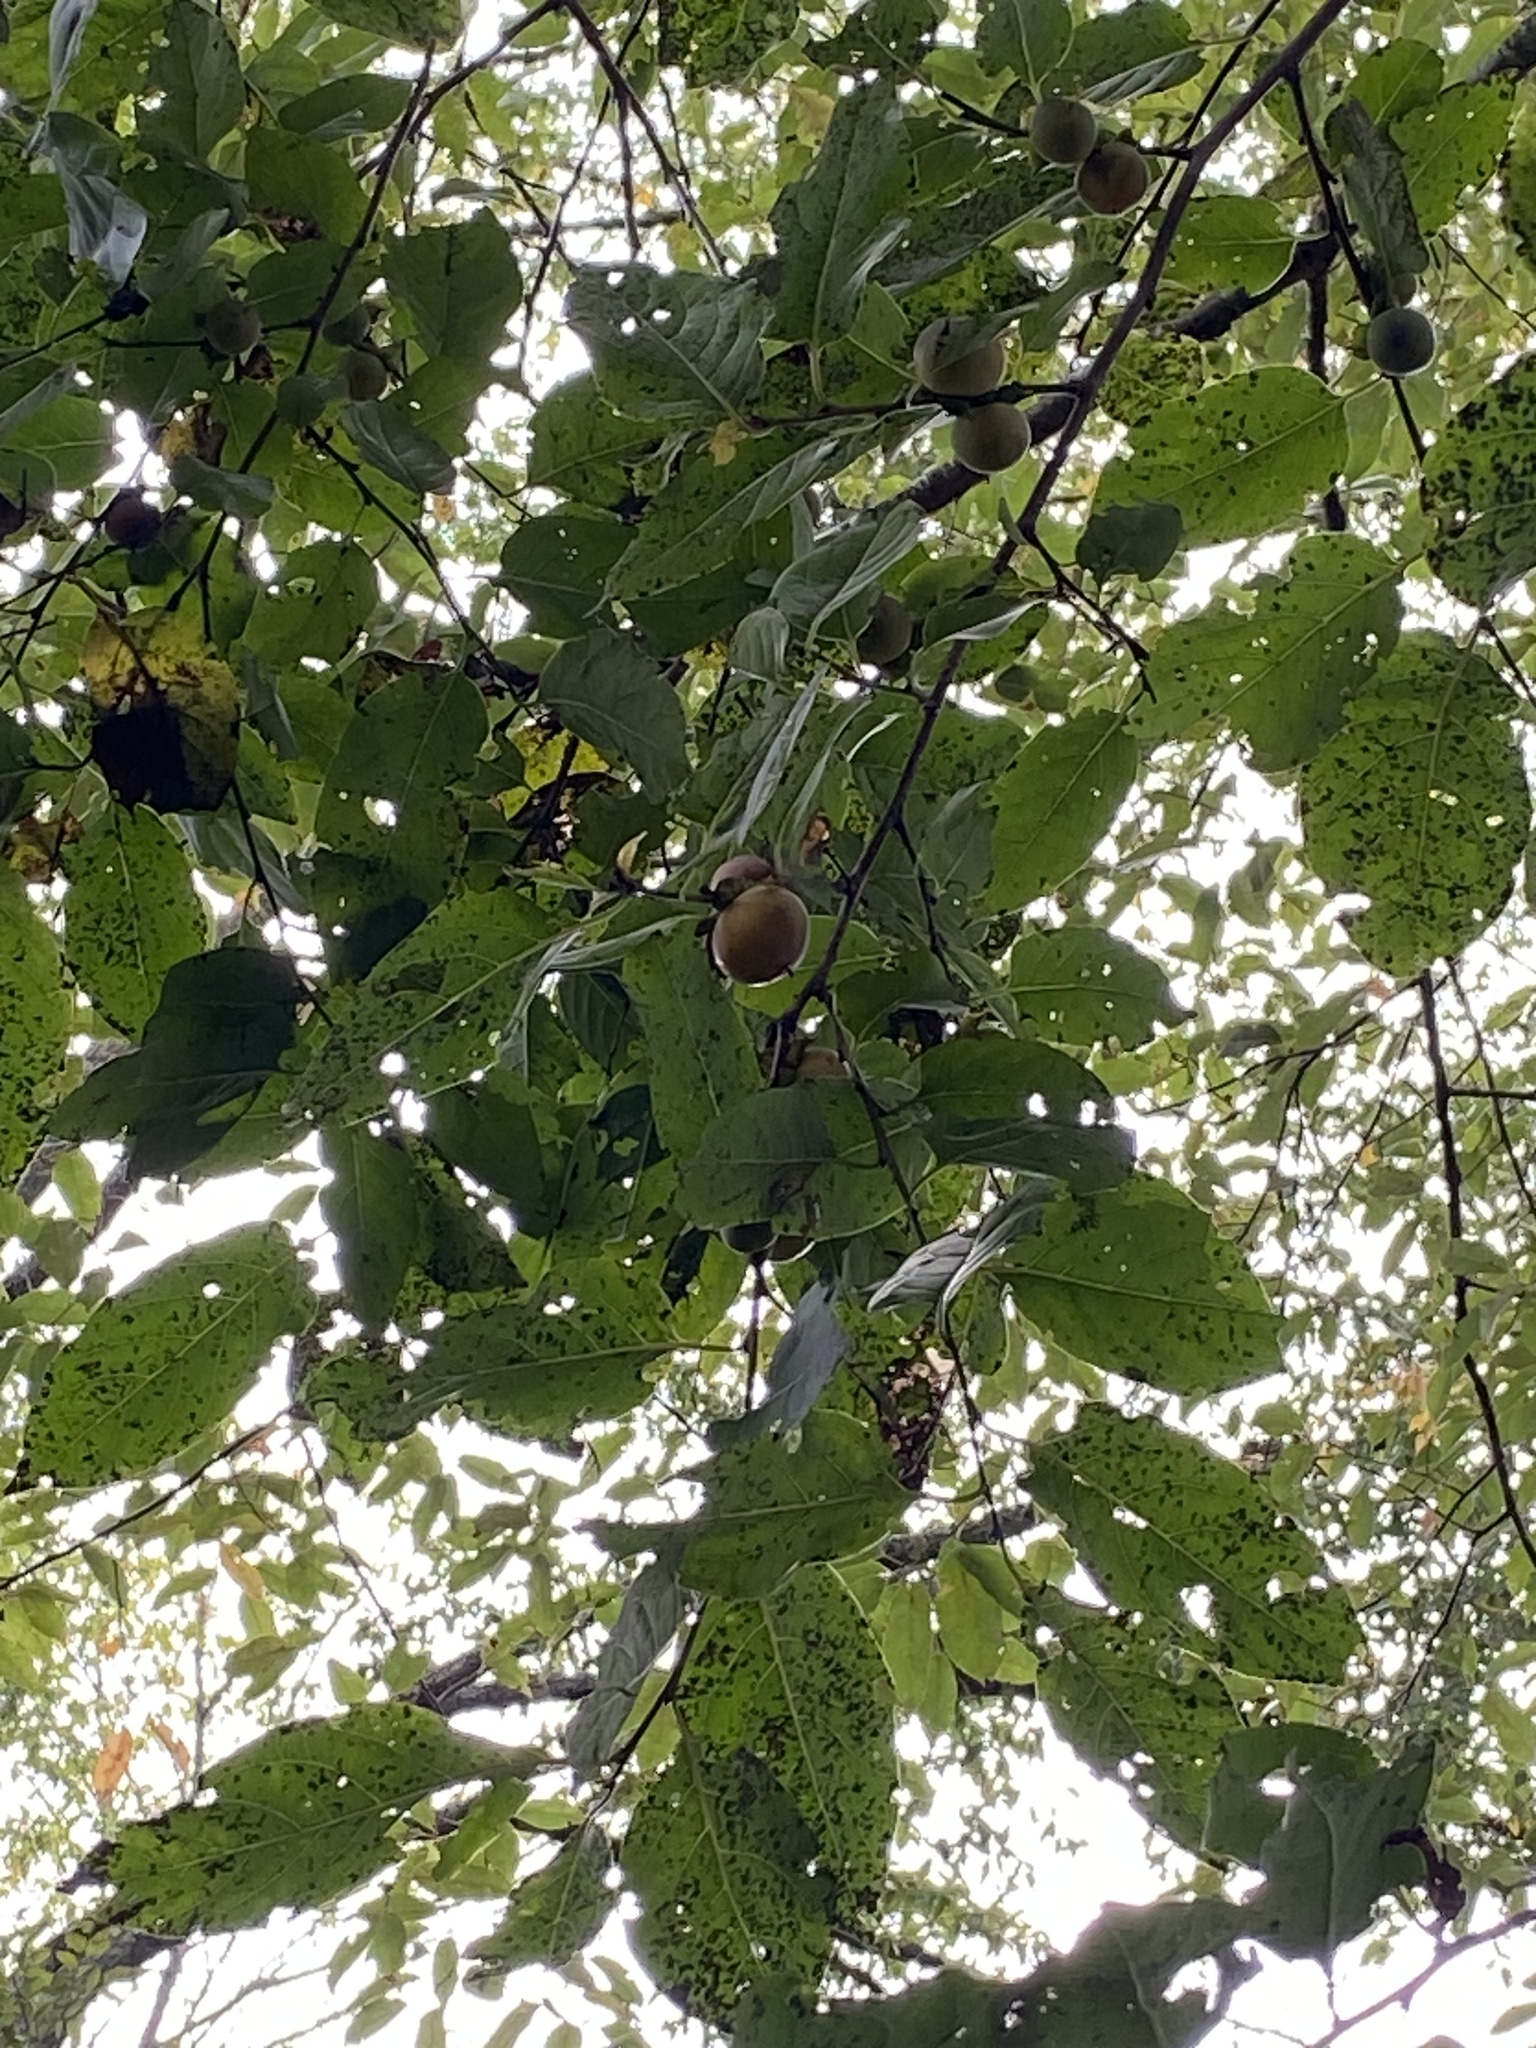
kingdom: Plantae
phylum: Tracheophyta
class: Magnoliopsida
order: Ericales
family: Ebenaceae
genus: Diospyros
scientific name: Diospyros virginiana
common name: Persimmon
